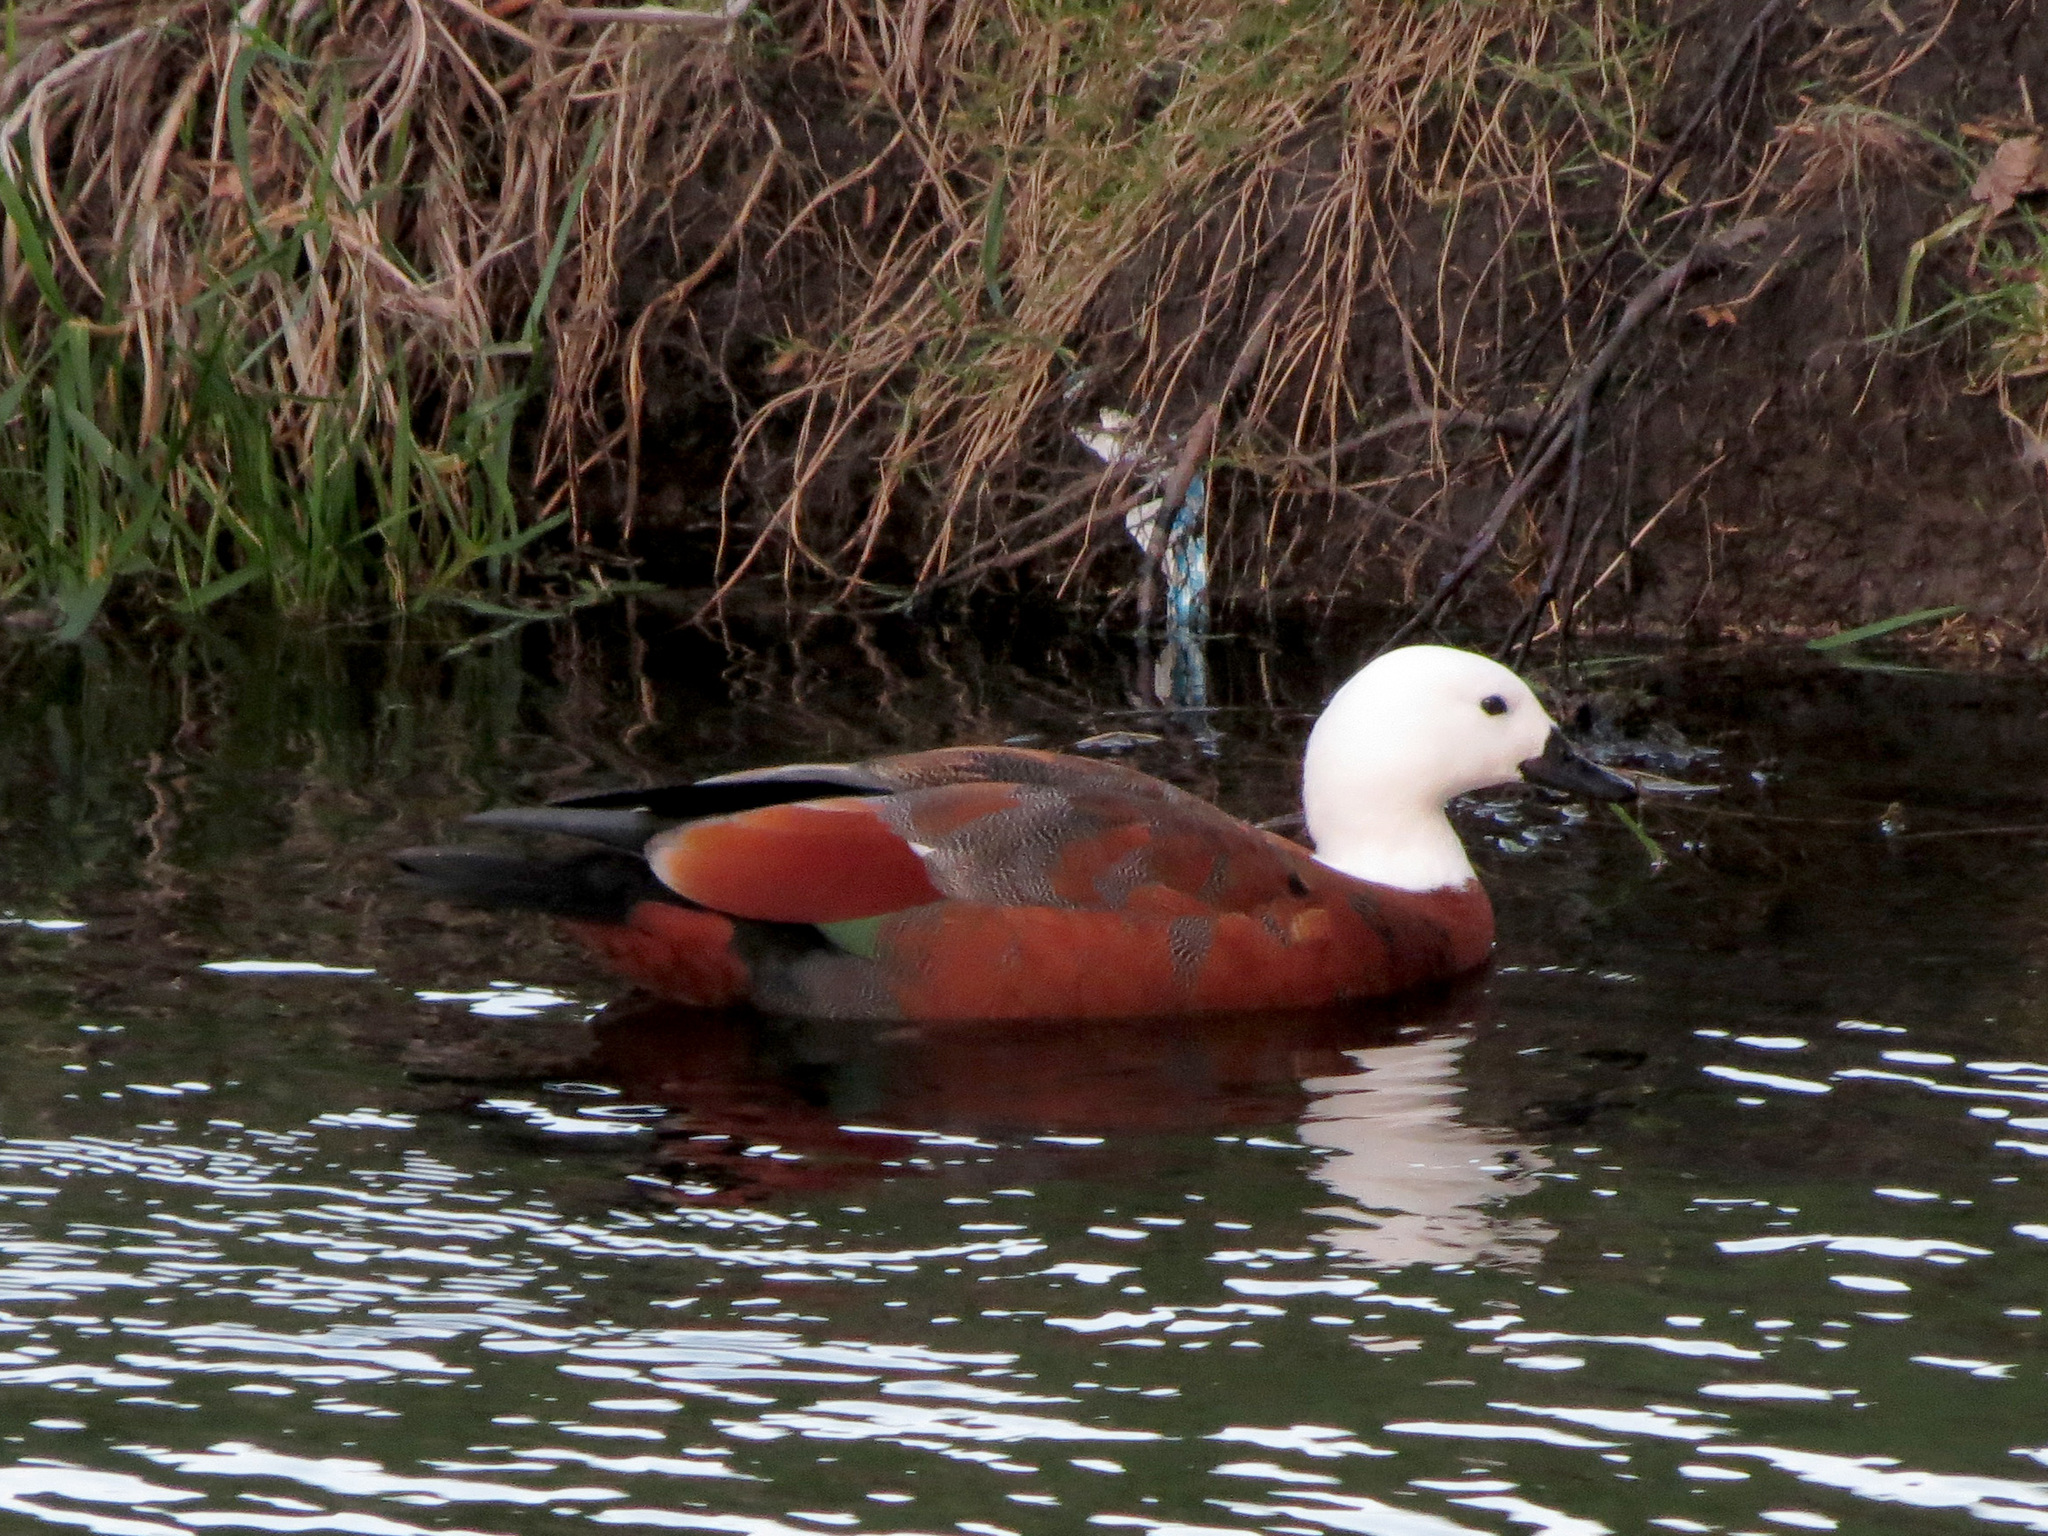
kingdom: Animalia
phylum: Chordata
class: Aves
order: Anseriformes
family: Anatidae
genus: Tadorna
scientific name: Tadorna variegata
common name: Paradise shelduck
